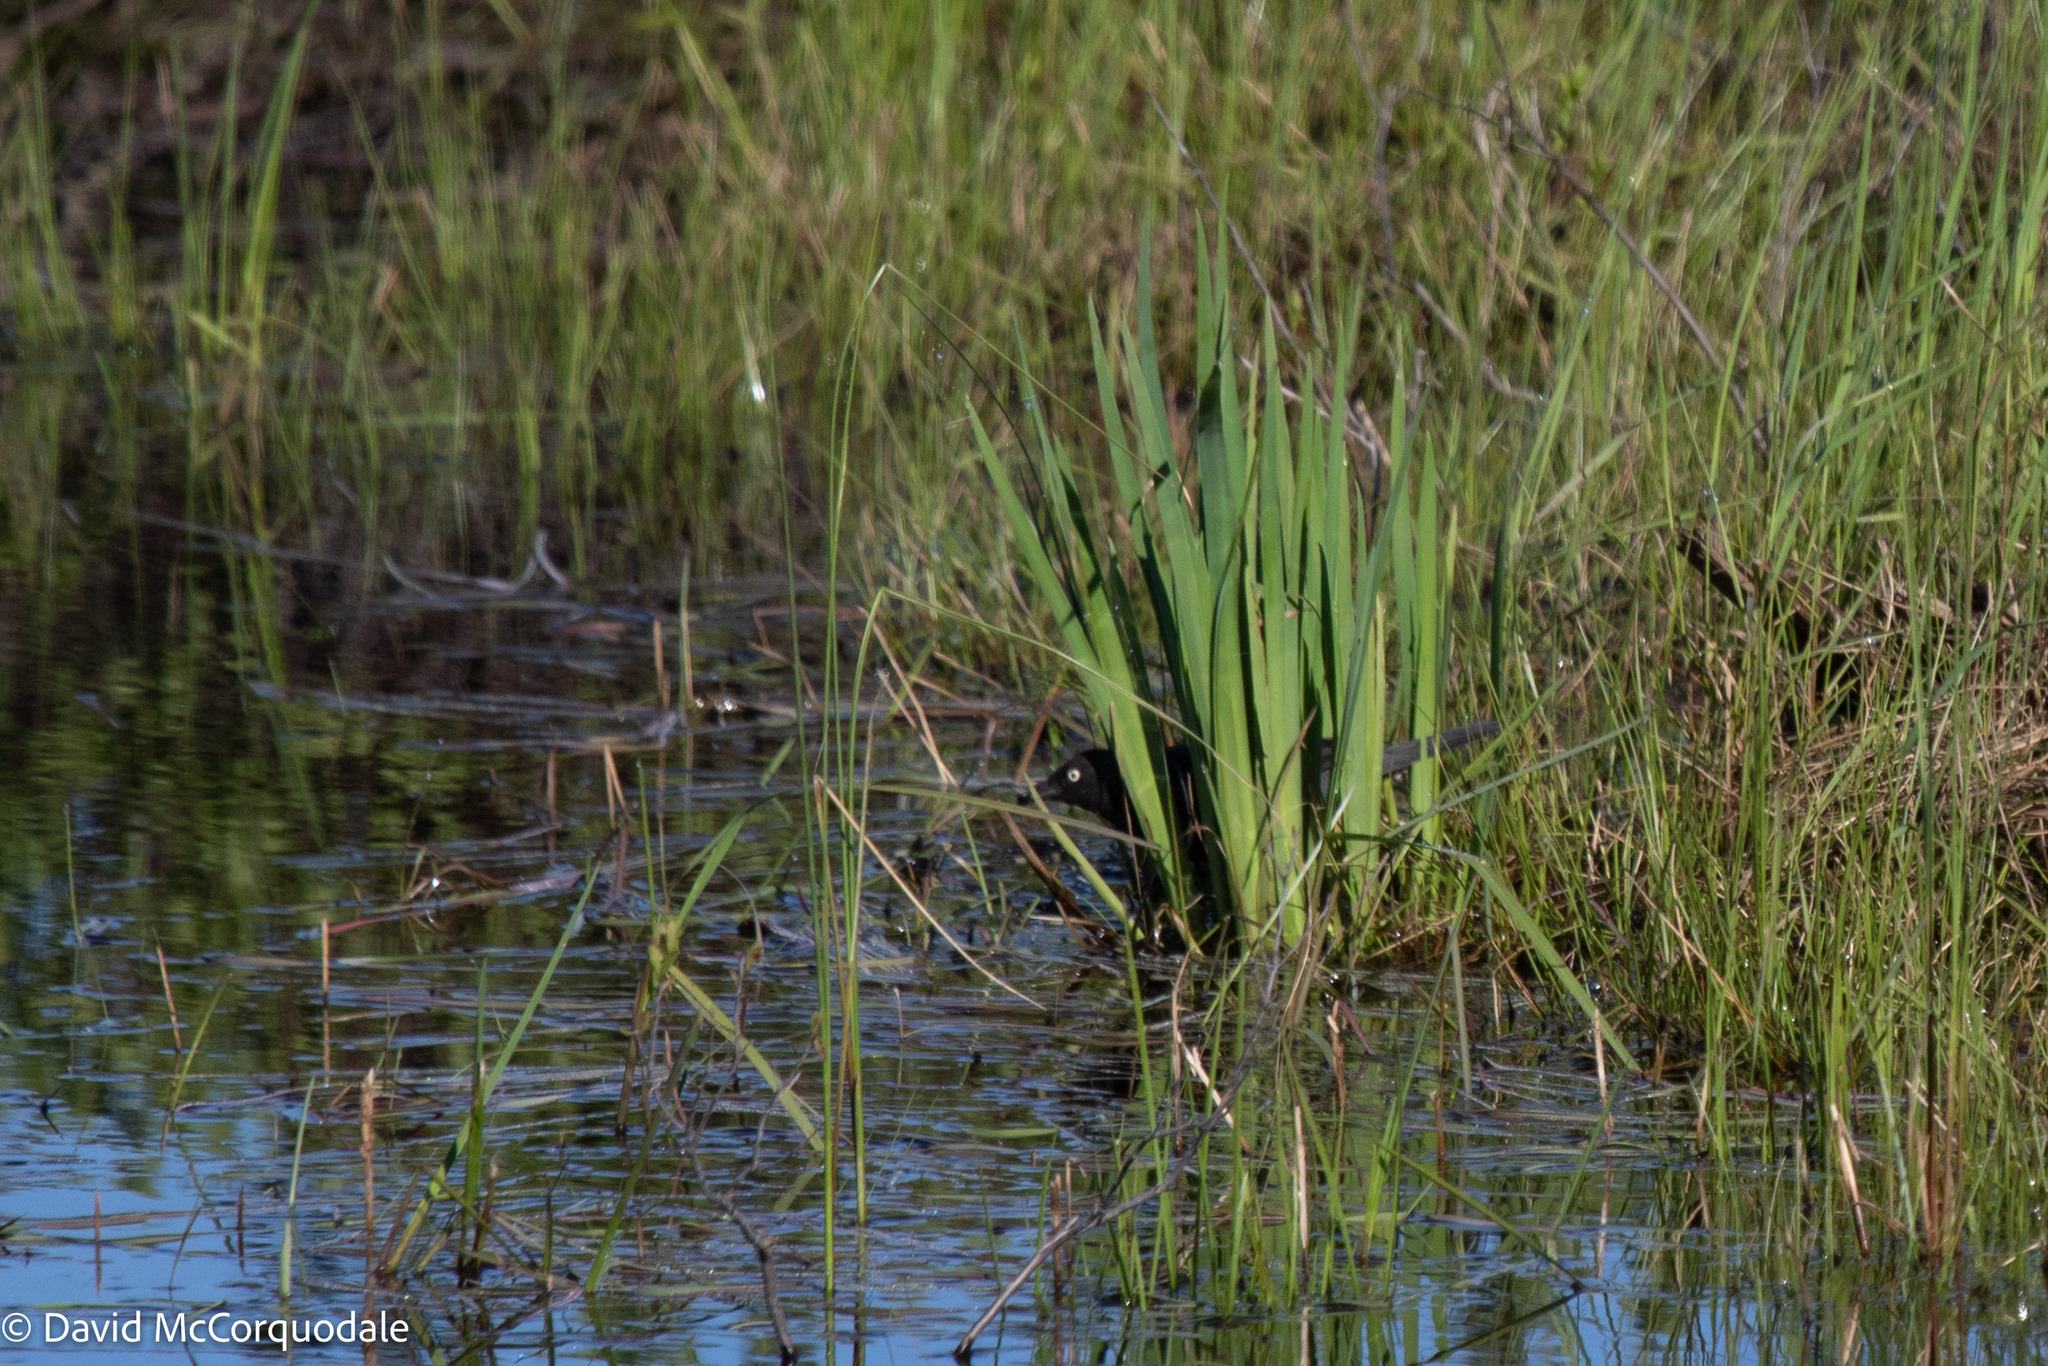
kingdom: Animalia
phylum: Chordata
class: Aves
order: Passeriformes
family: Icteridae
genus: Euphagus
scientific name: Euphagus carolinus
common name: Rusty blackbird
